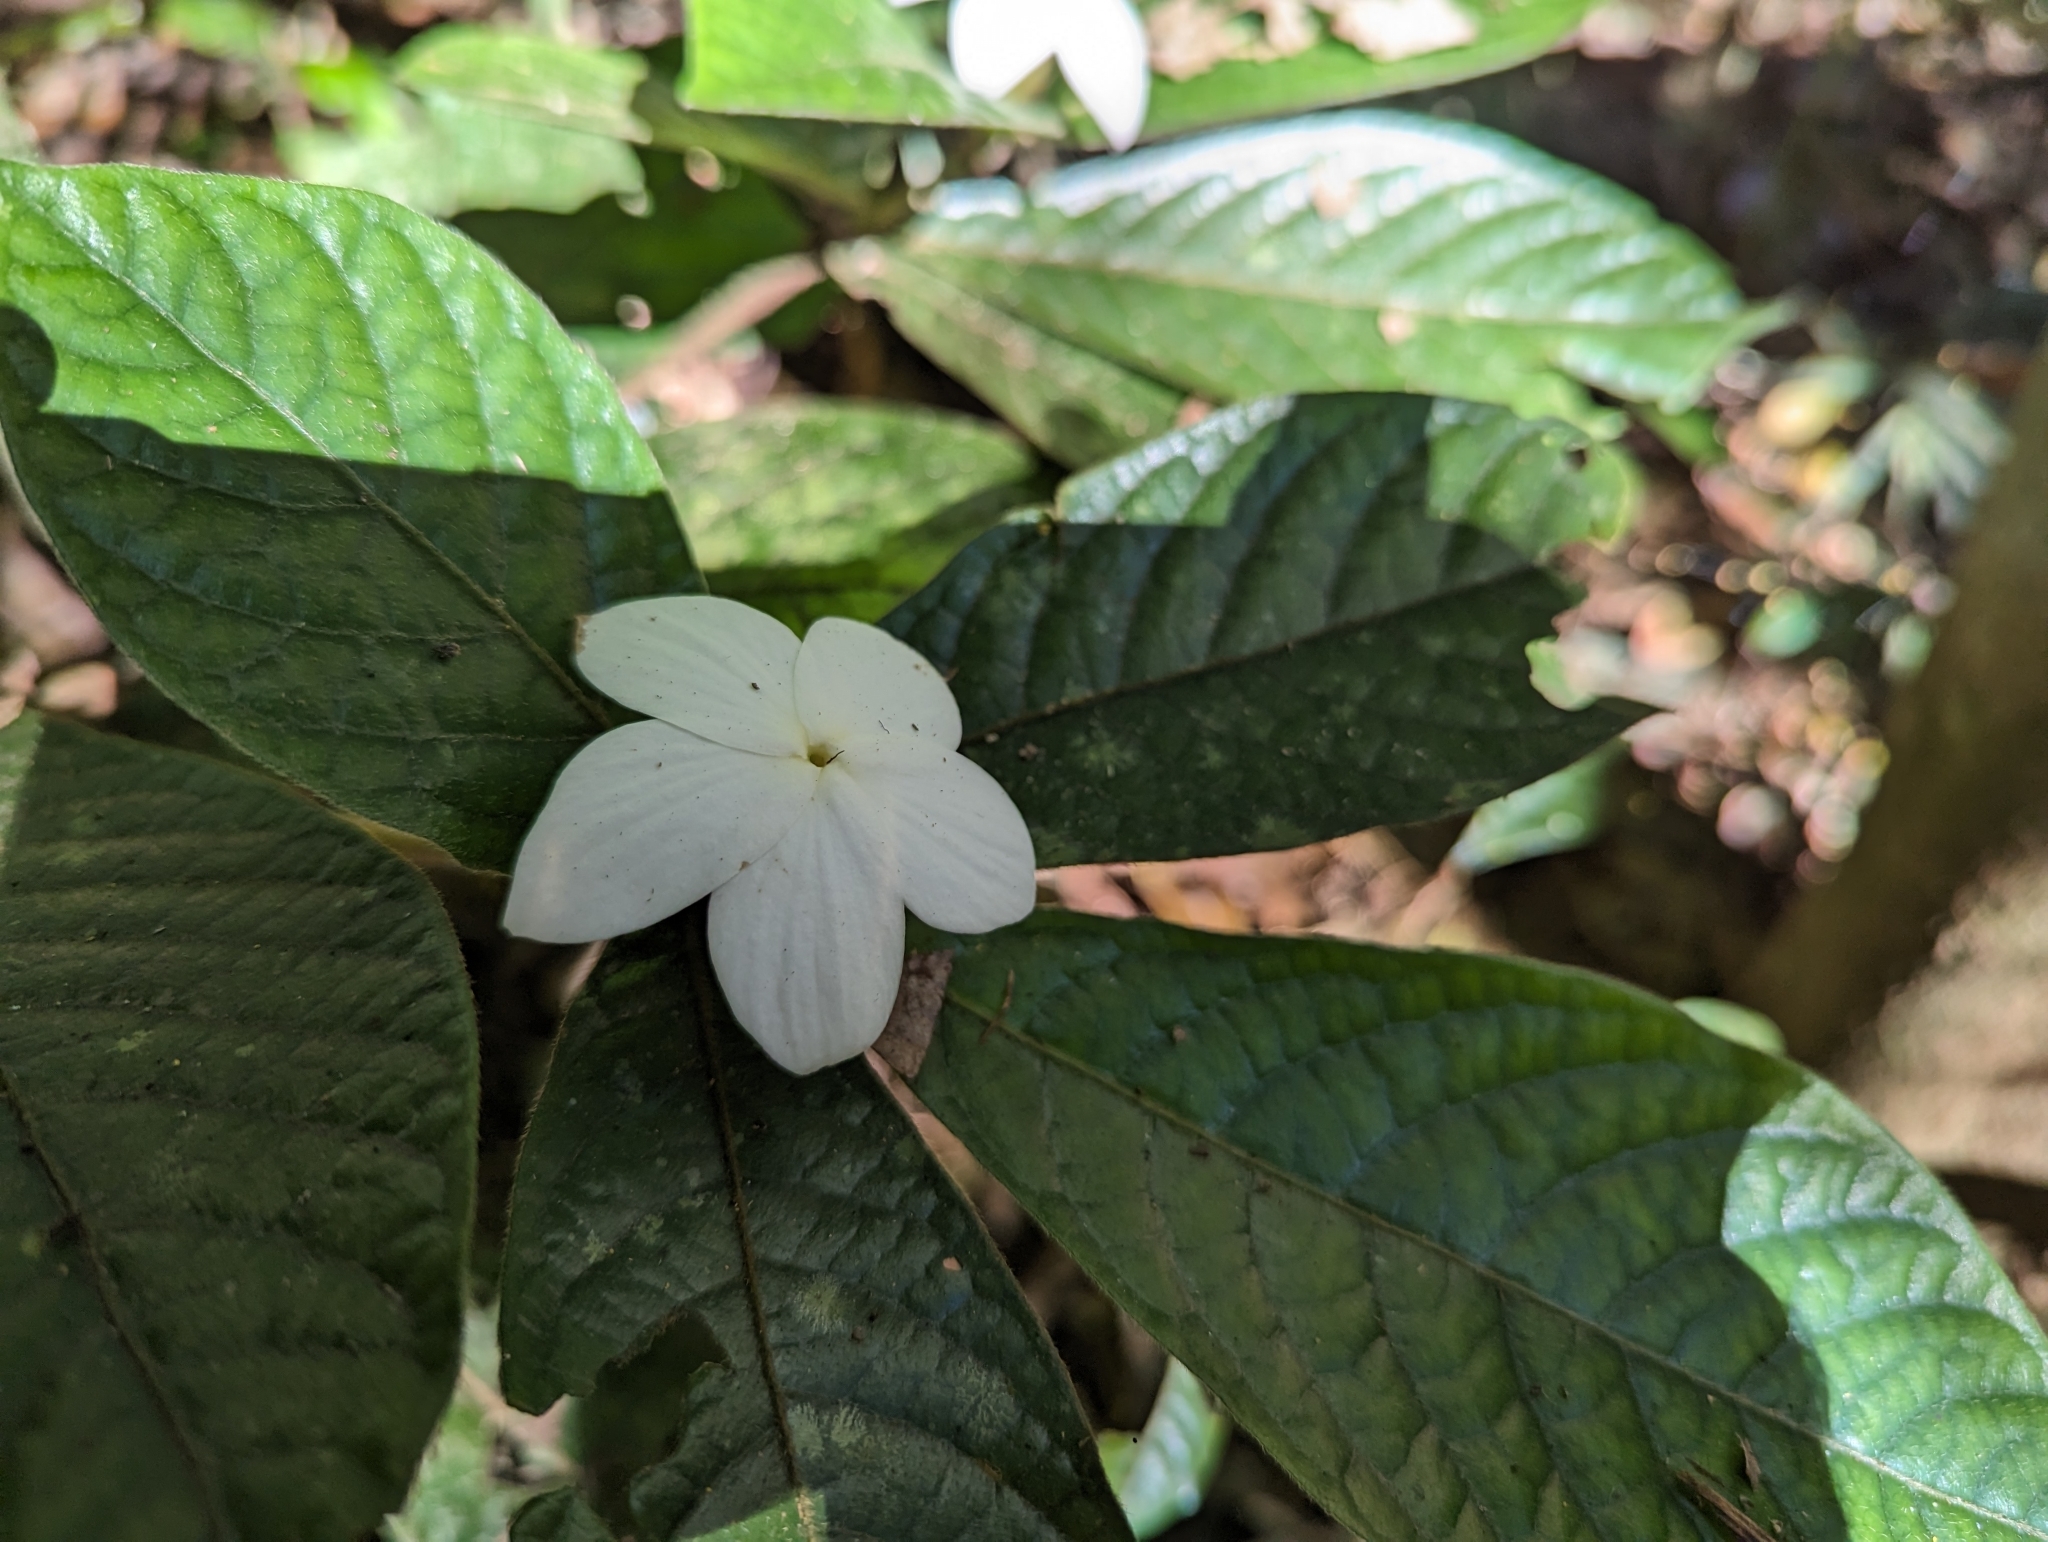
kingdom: Plantae
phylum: Tracheophyta
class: Magnoliopsida
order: Gentianales
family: Rubiaceae
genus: Atractocarpus
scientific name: Atractocarpus hirtus
